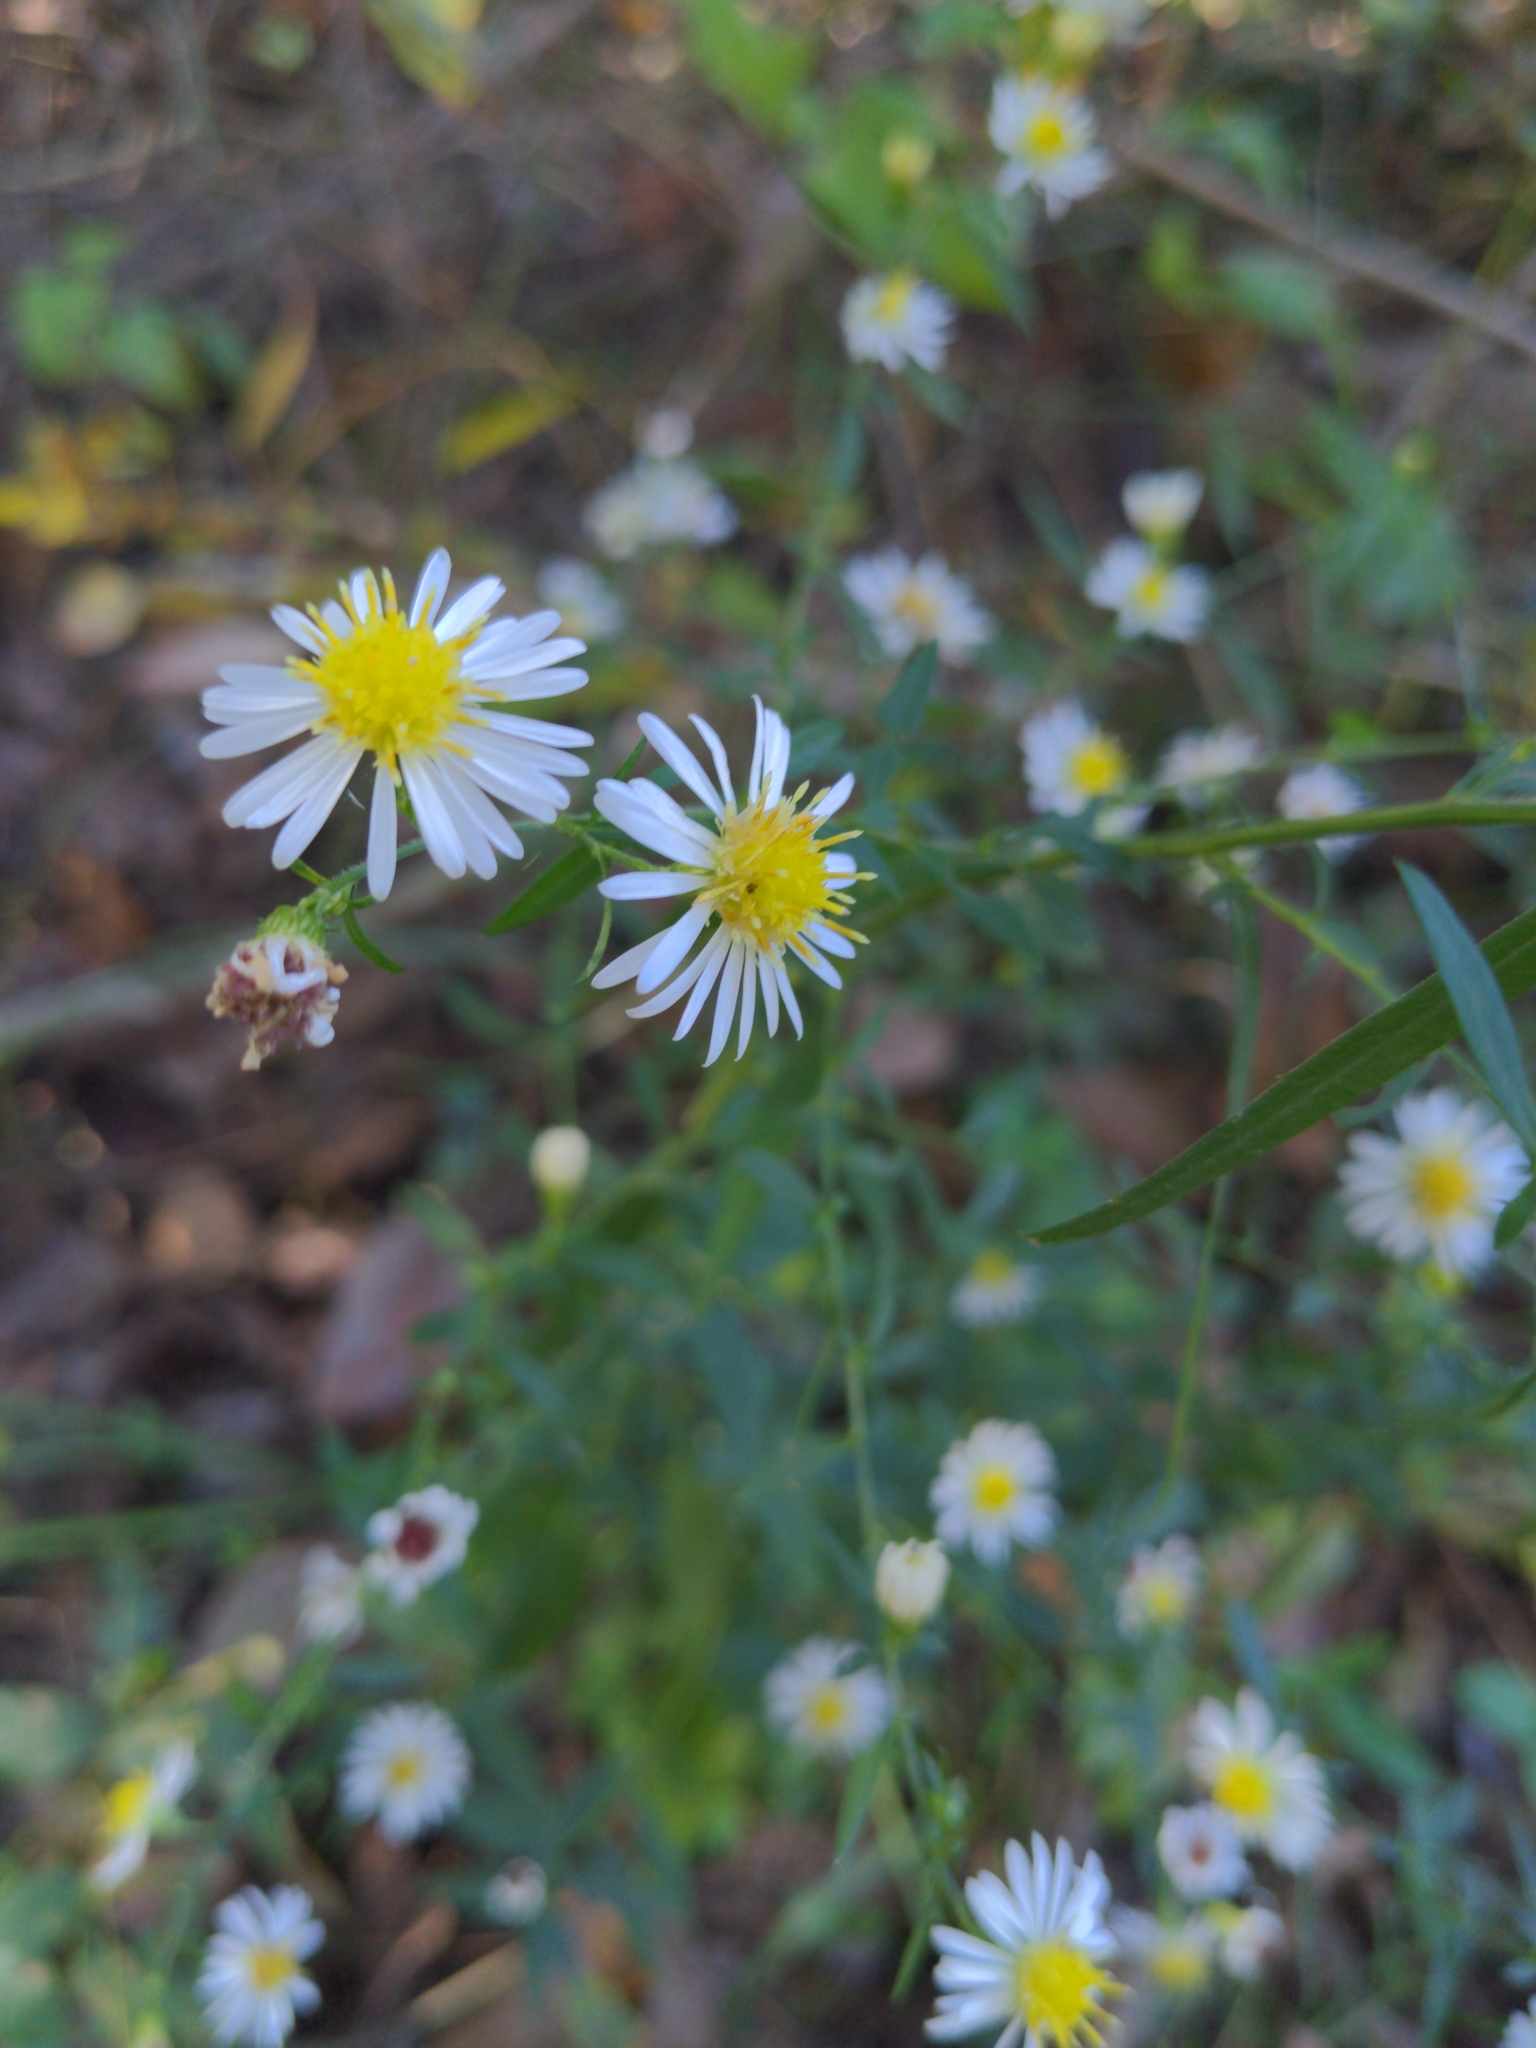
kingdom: Plantae
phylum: Tracheophyta
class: Magnoliopsida
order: Asterales
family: Asteraceae
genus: Symphyotrichum
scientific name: Symphyotrichum ontarionis
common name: Bottomland aster
